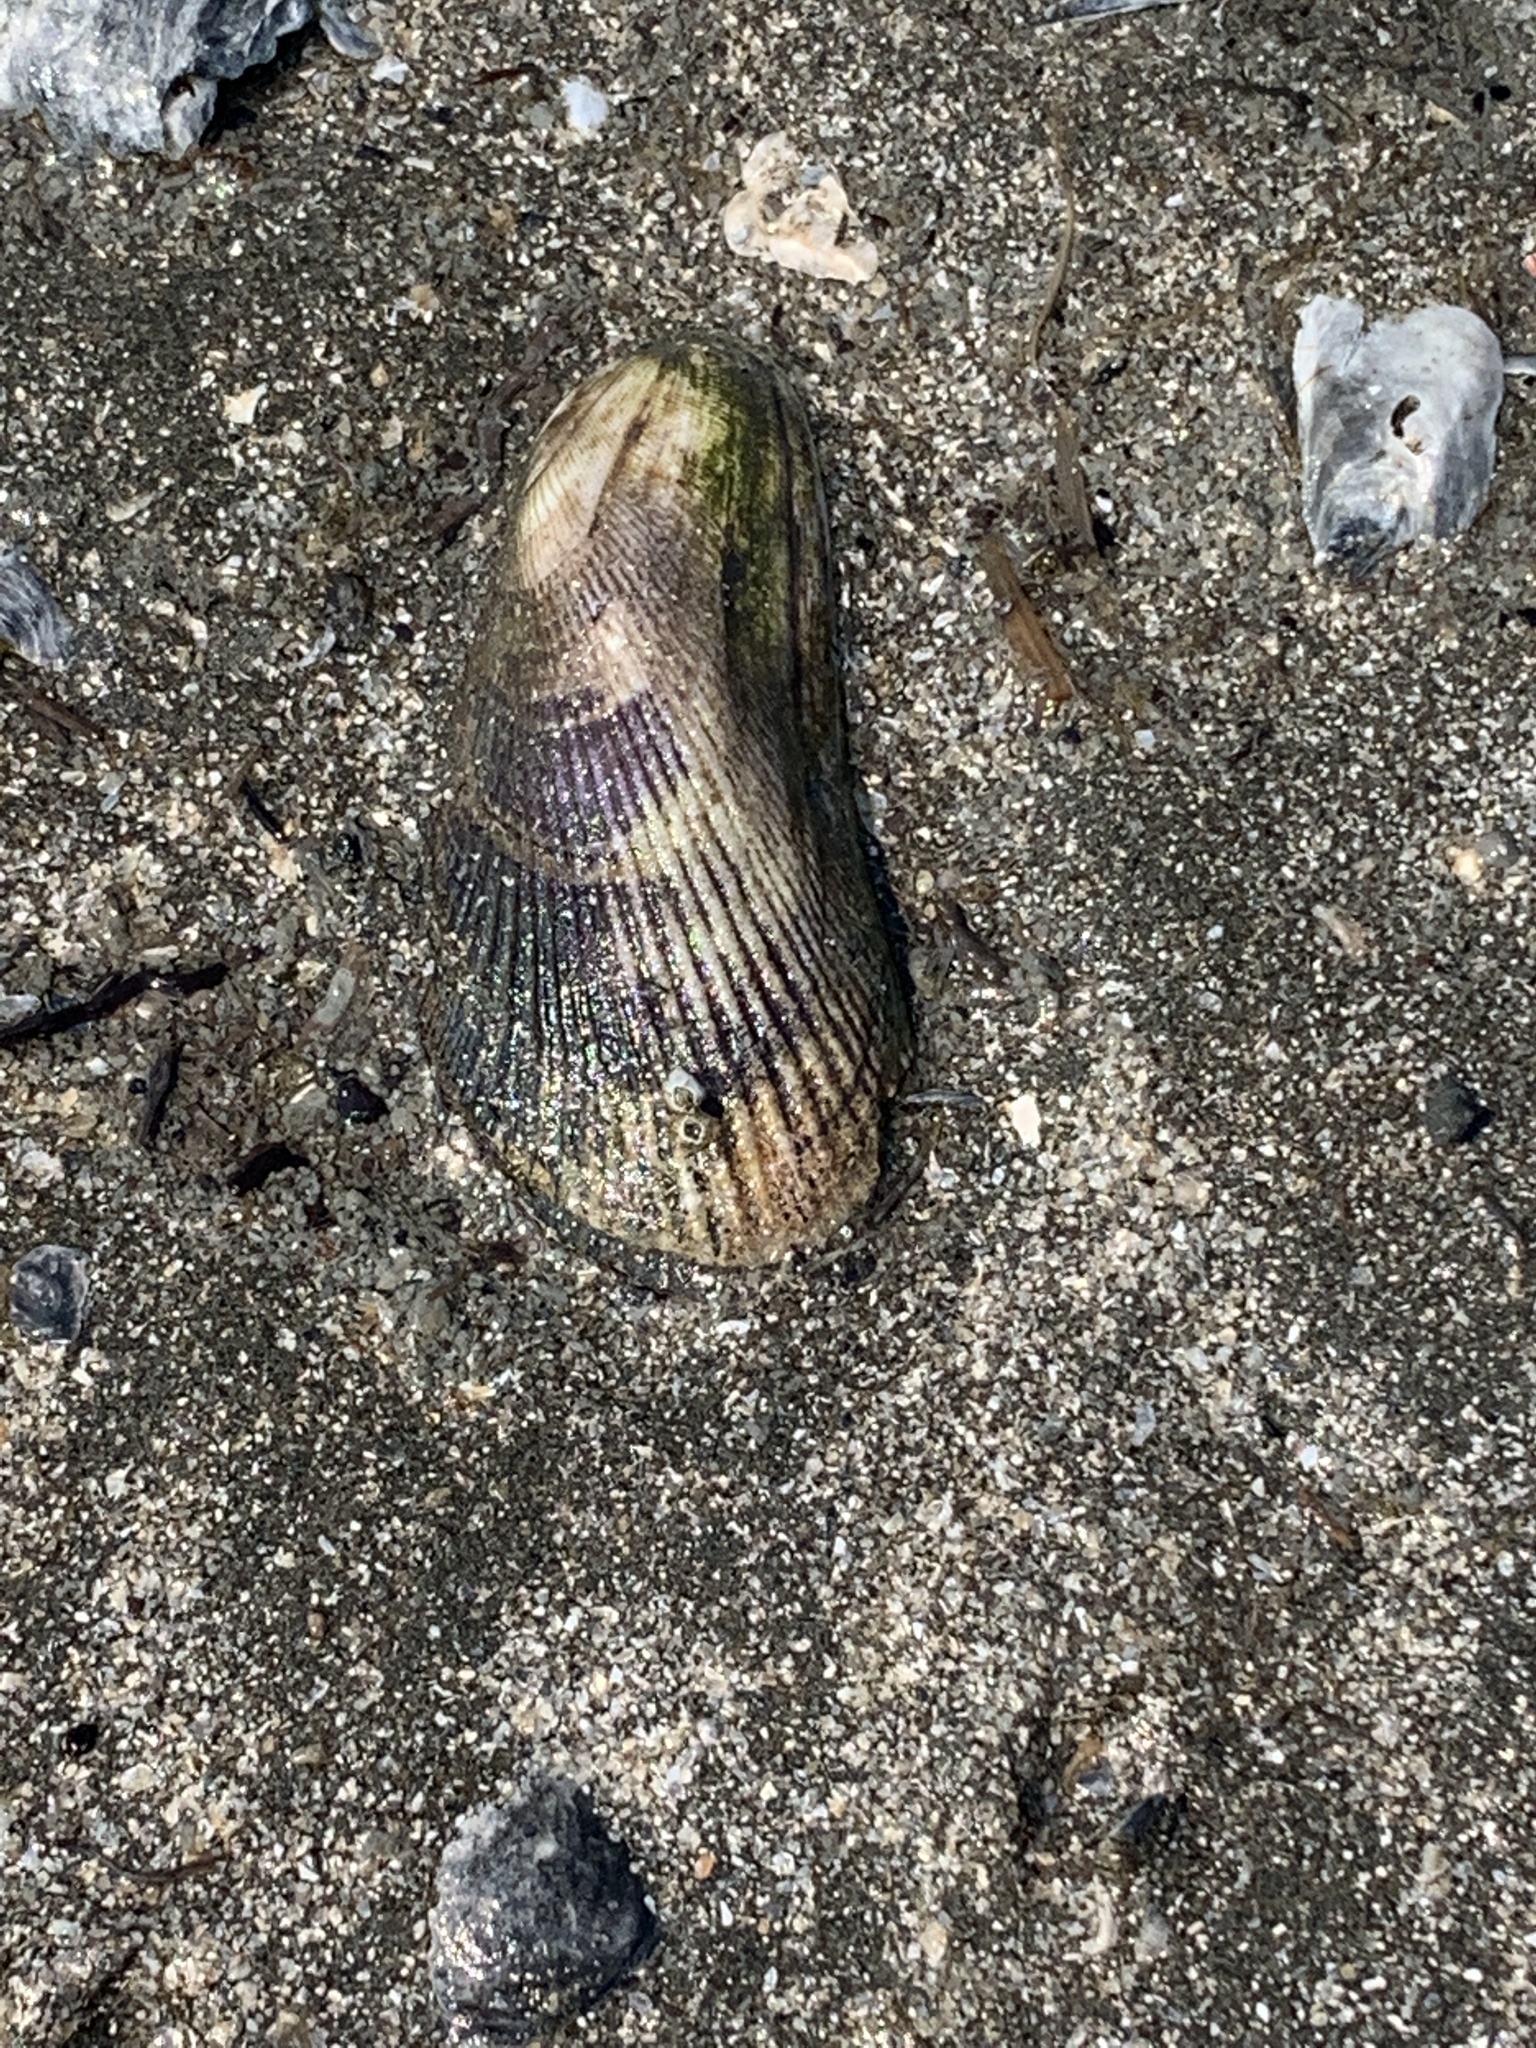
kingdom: Animalia
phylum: Mollusca
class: Bivalvia
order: Mytilida
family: Mytilidae
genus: Geukensia
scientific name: Geukensia demissa
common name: Ribbed mussel
